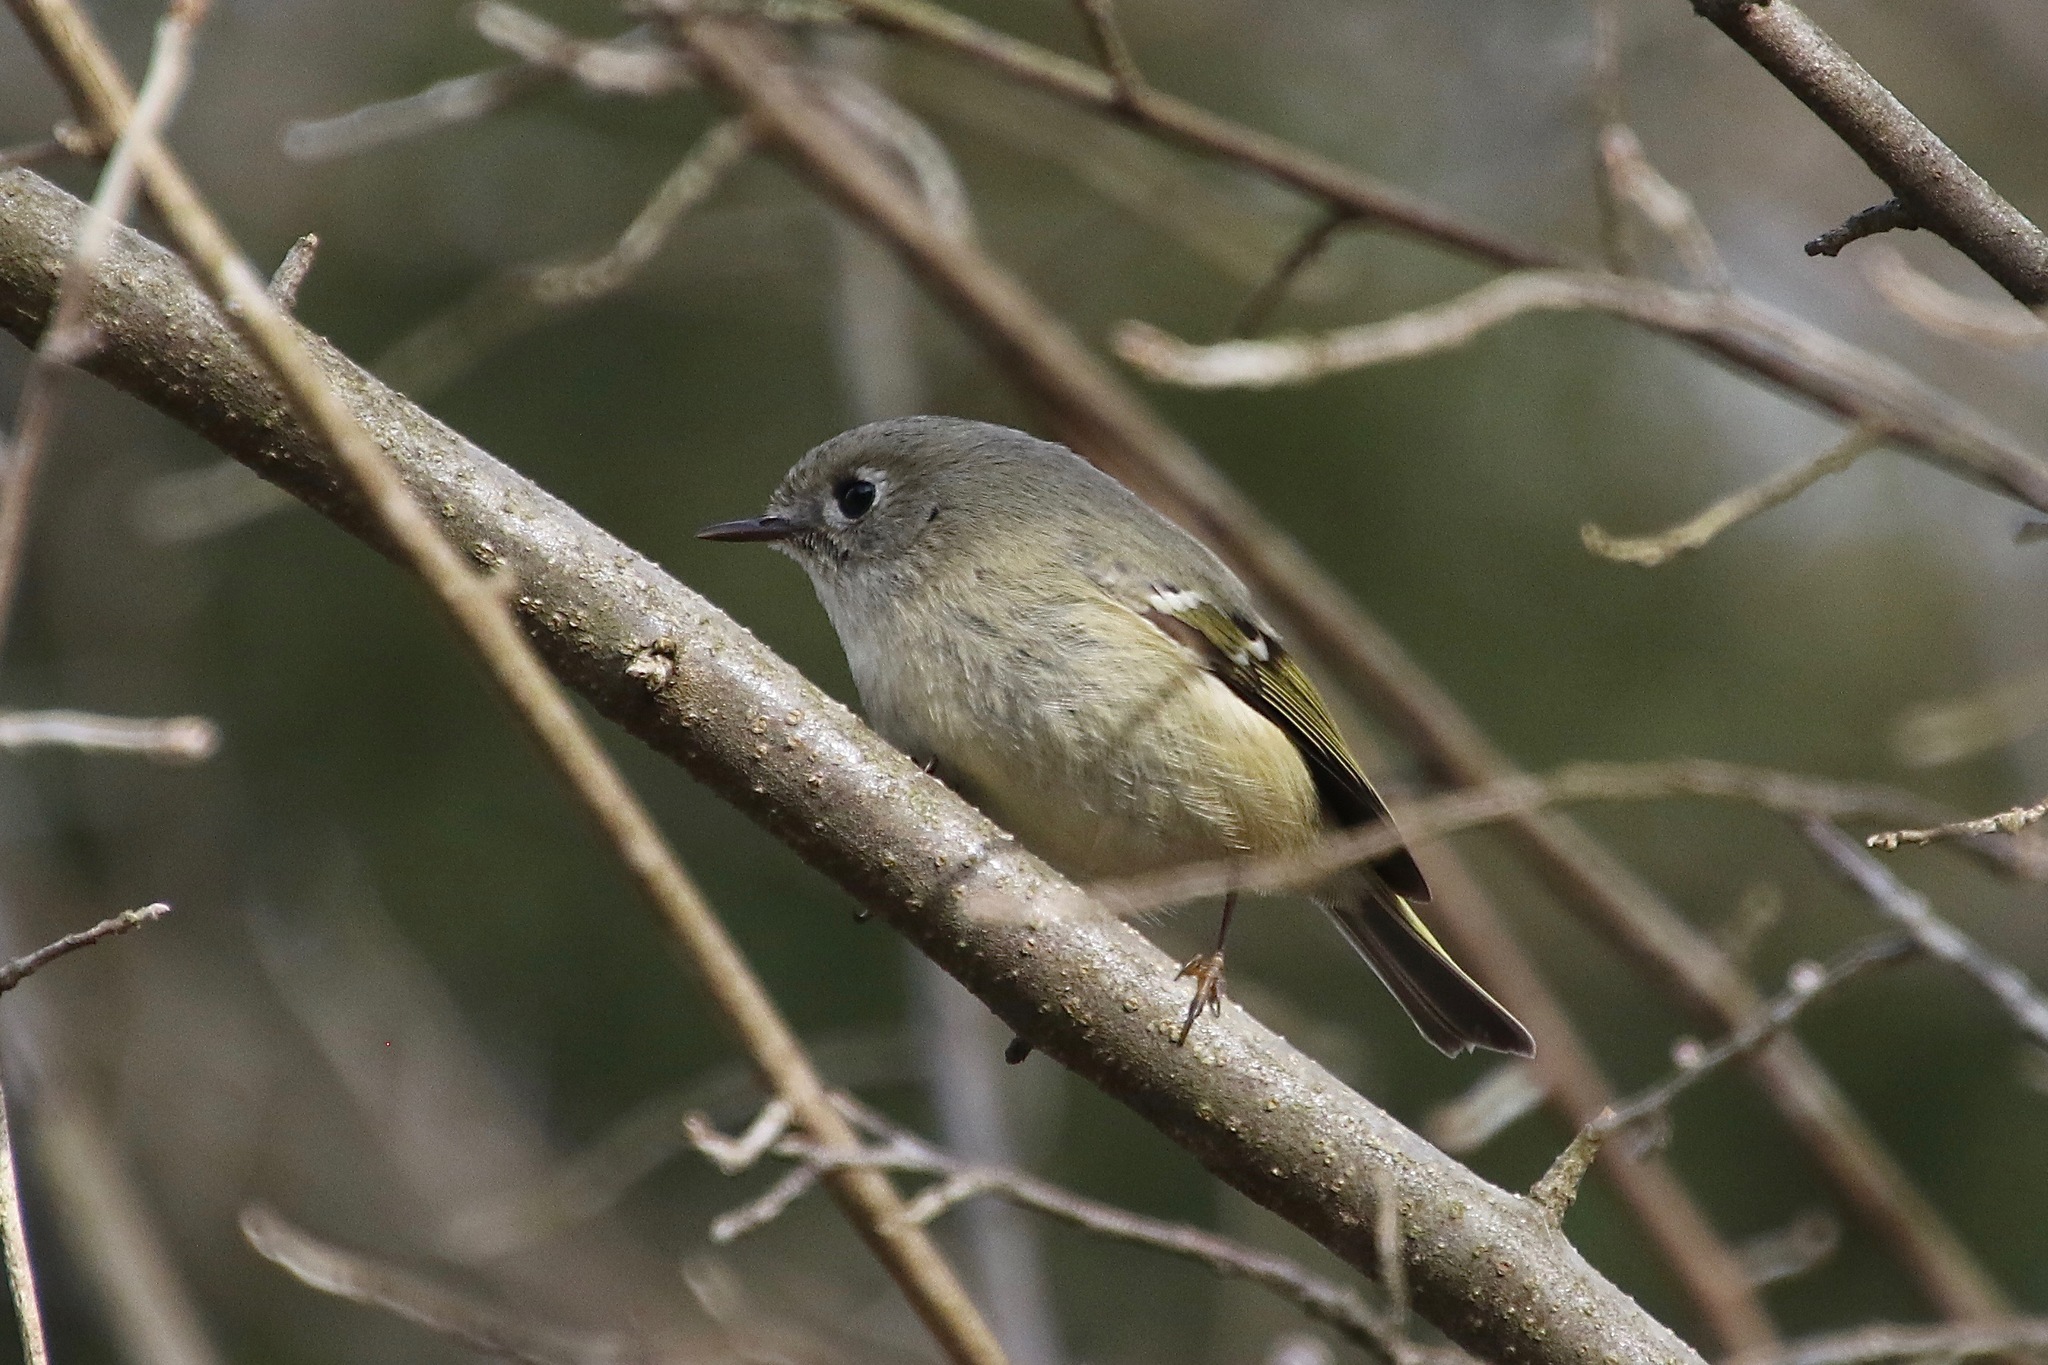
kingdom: Animalia
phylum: Chordata
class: Aves
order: Passeriformes
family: Regulidae
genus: Regulus
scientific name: Regulus calendula
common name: Ruby-crowned kinglet
